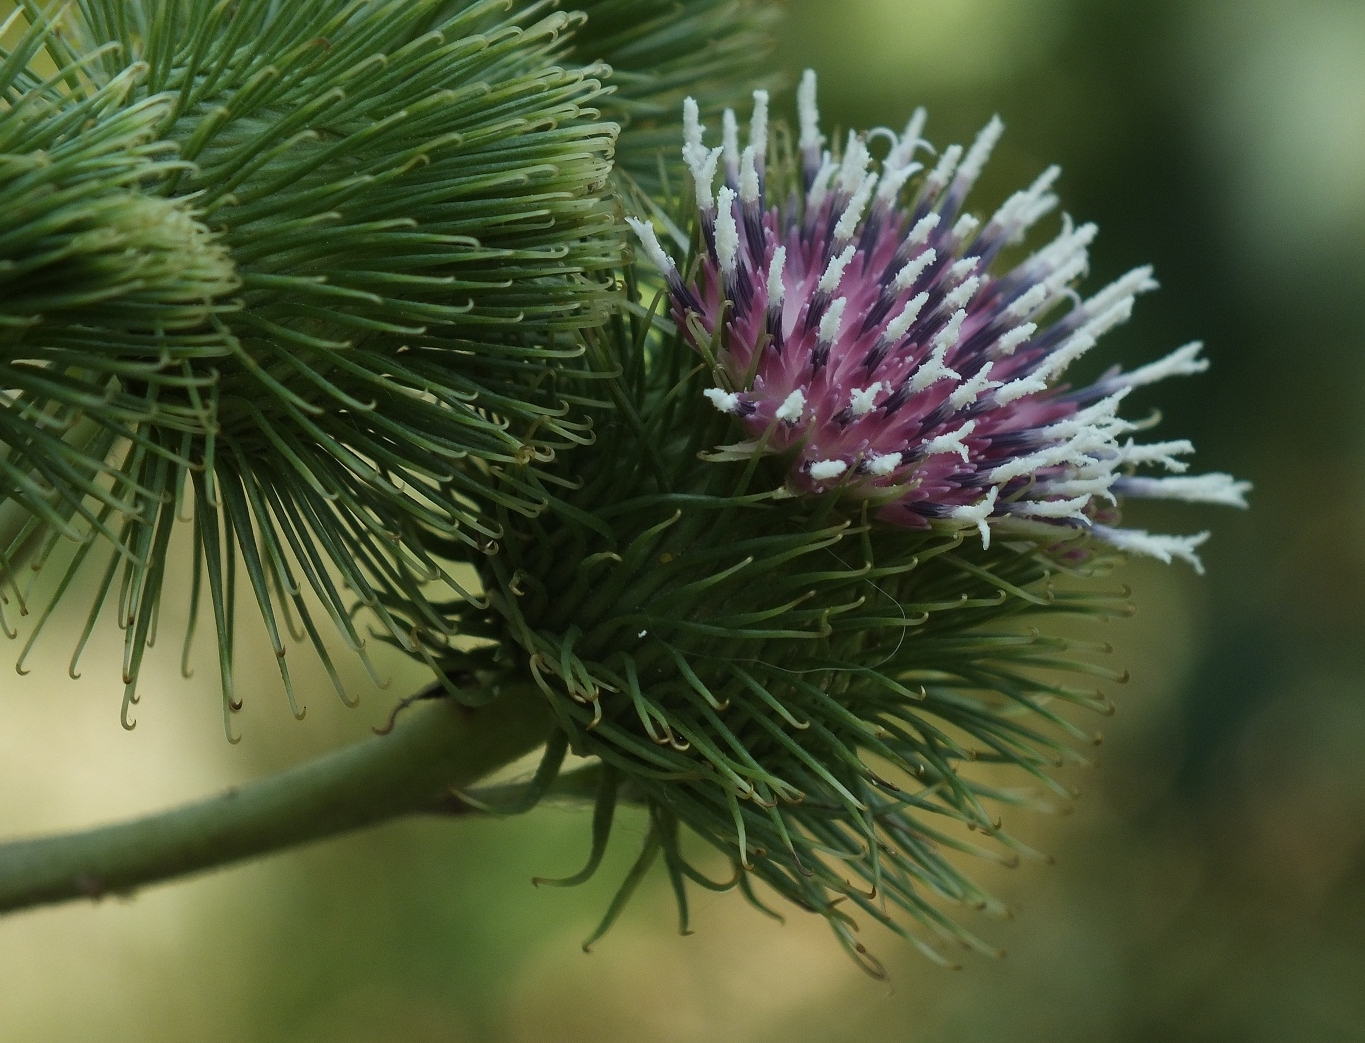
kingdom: Plantae
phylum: Tracheophyta
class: Magnoliopsida
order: Asterales
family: Asteraceae
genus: Arctium
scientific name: Arctium lappa
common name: Greater burdock
